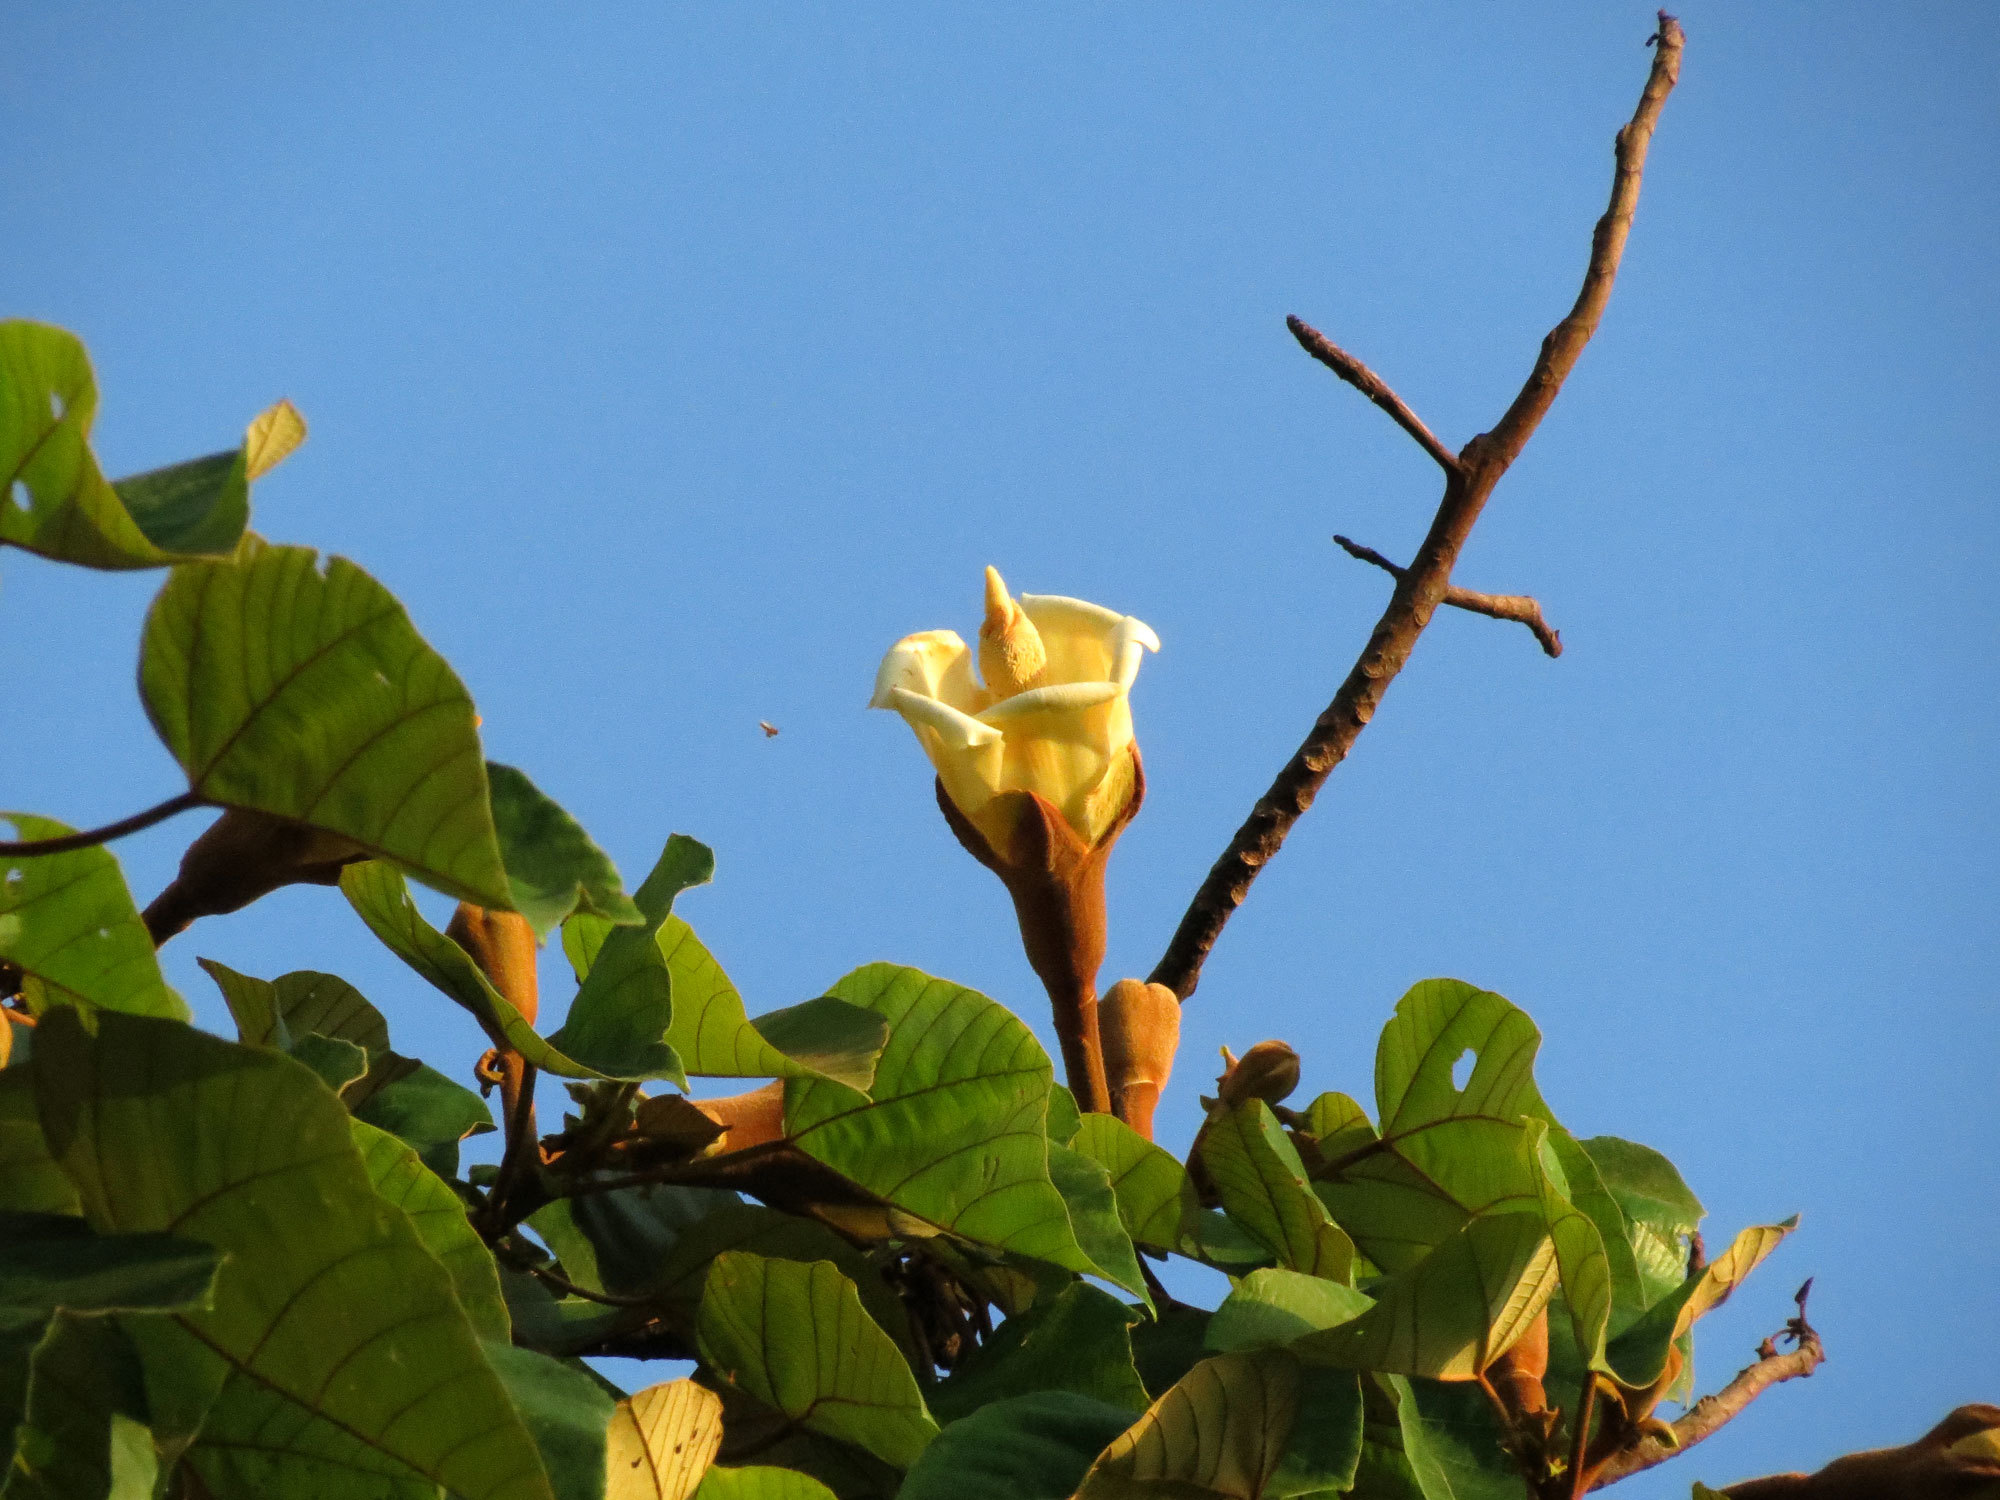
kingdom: Plantae
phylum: Tracheophyta
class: Magnoliopsida
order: Malvales
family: Malvaceae
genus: Ochroma
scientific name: Ochroma pyramidale
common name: Balsa
